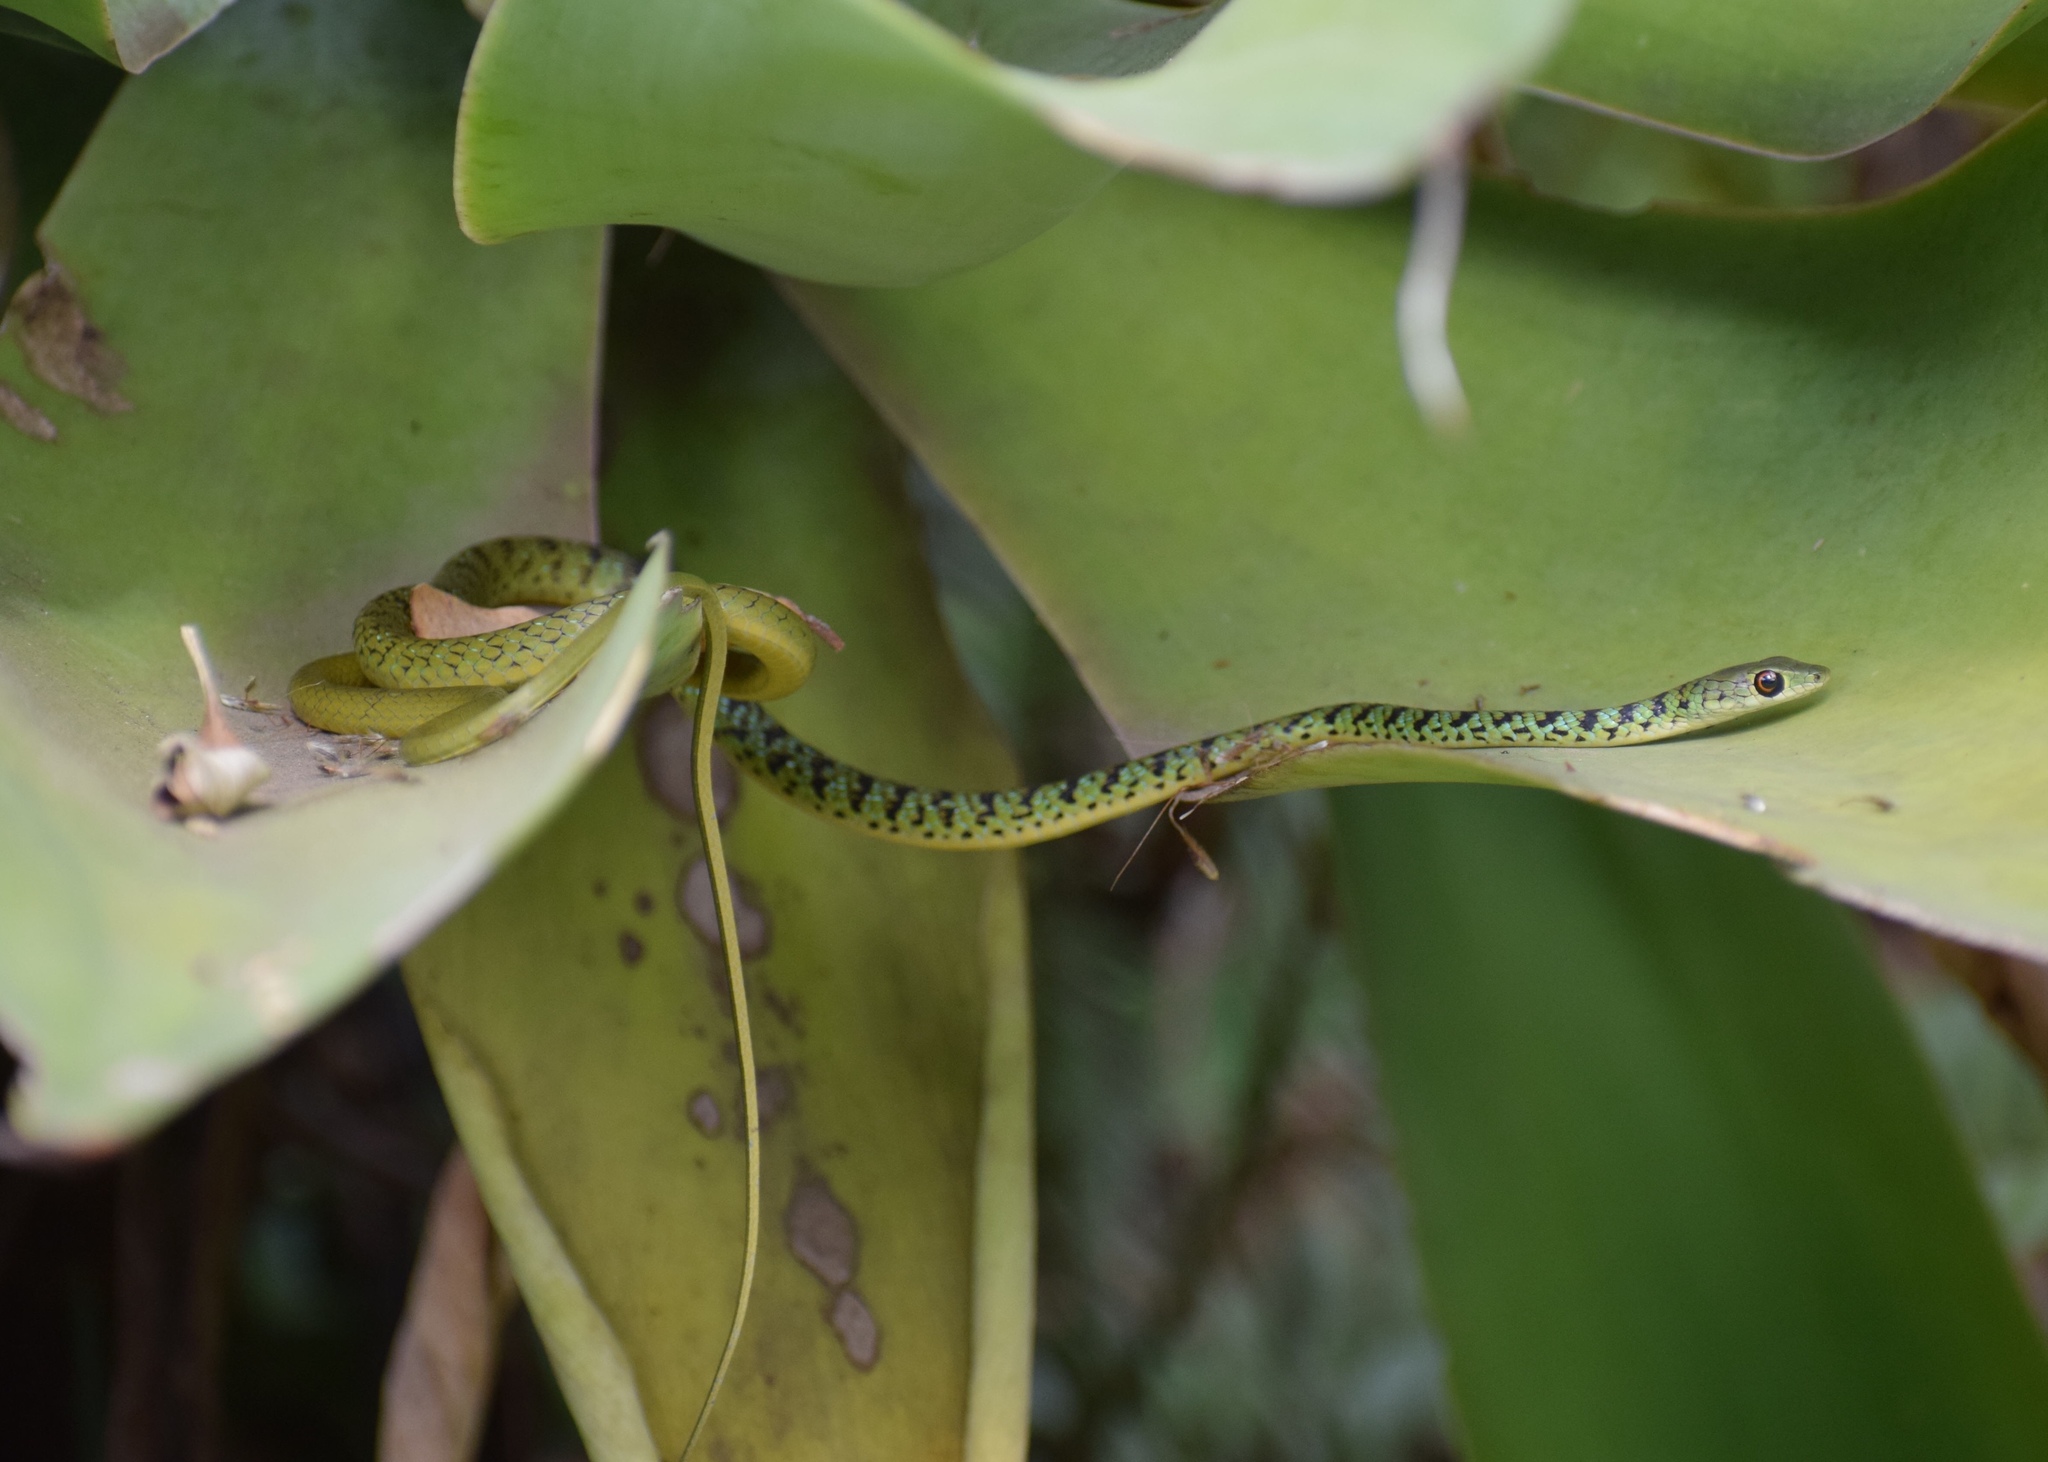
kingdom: Animalia
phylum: Chordata
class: Squamata
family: Colubridae
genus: Philothamnus
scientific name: Philothamnus semivariegatus
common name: Spotted bush snake
